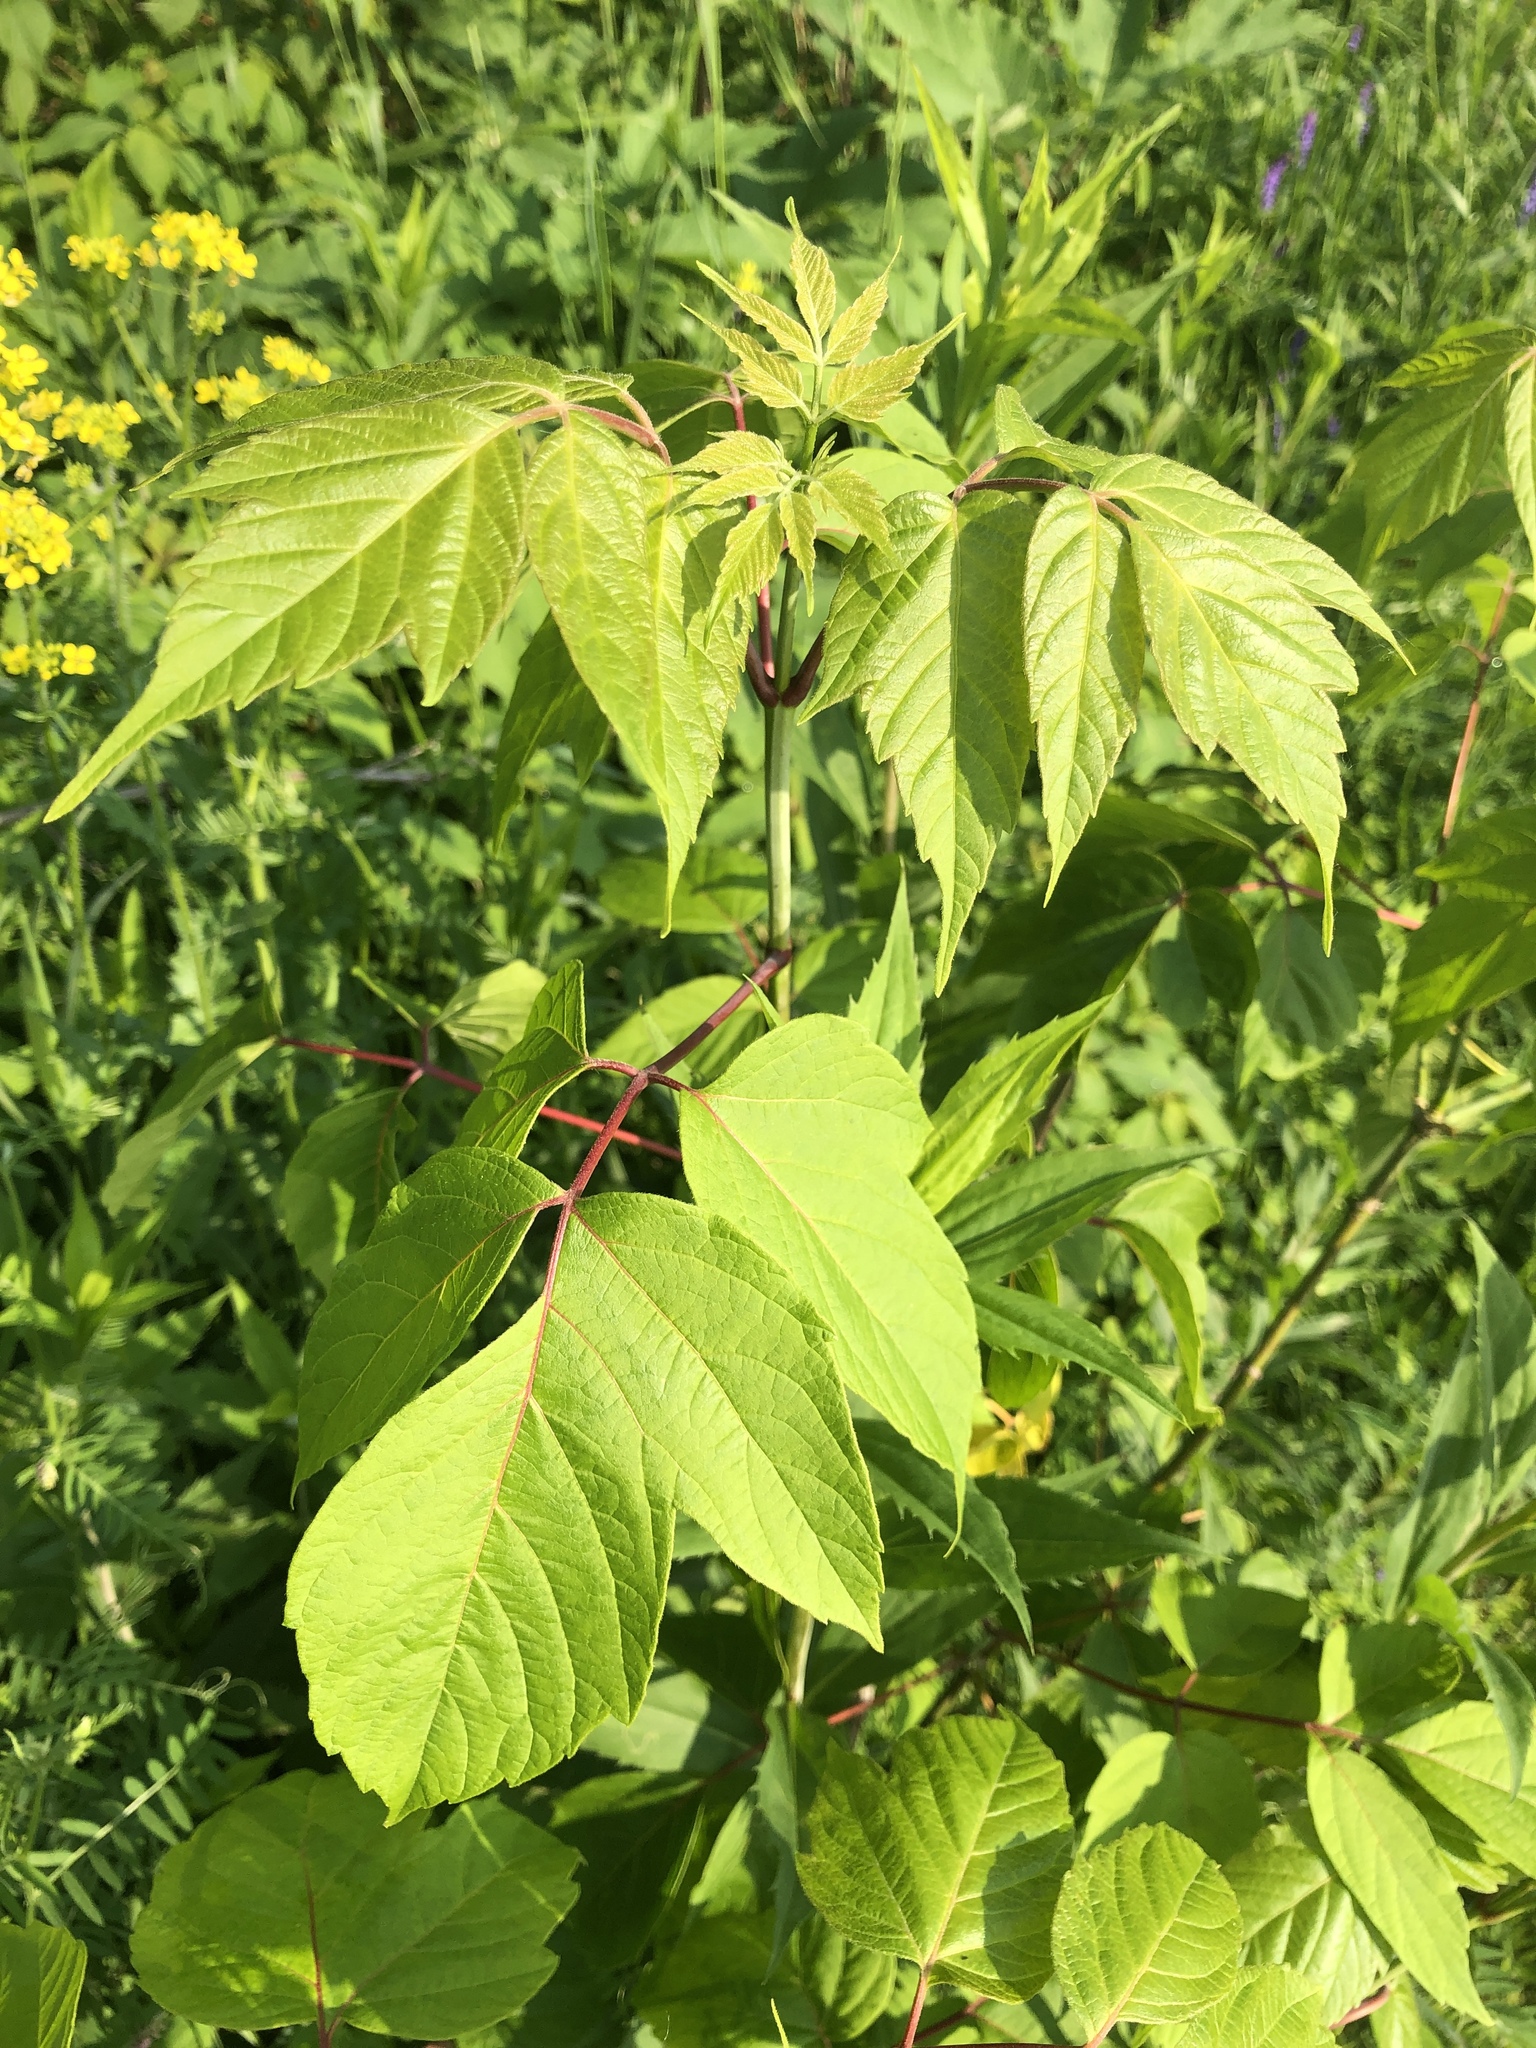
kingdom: Plantae
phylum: Tracheophyta
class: Magnoliopsida
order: Sapindales
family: Sapindaceae
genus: Acer
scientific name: Acer negundo
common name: Ashleaf maple
